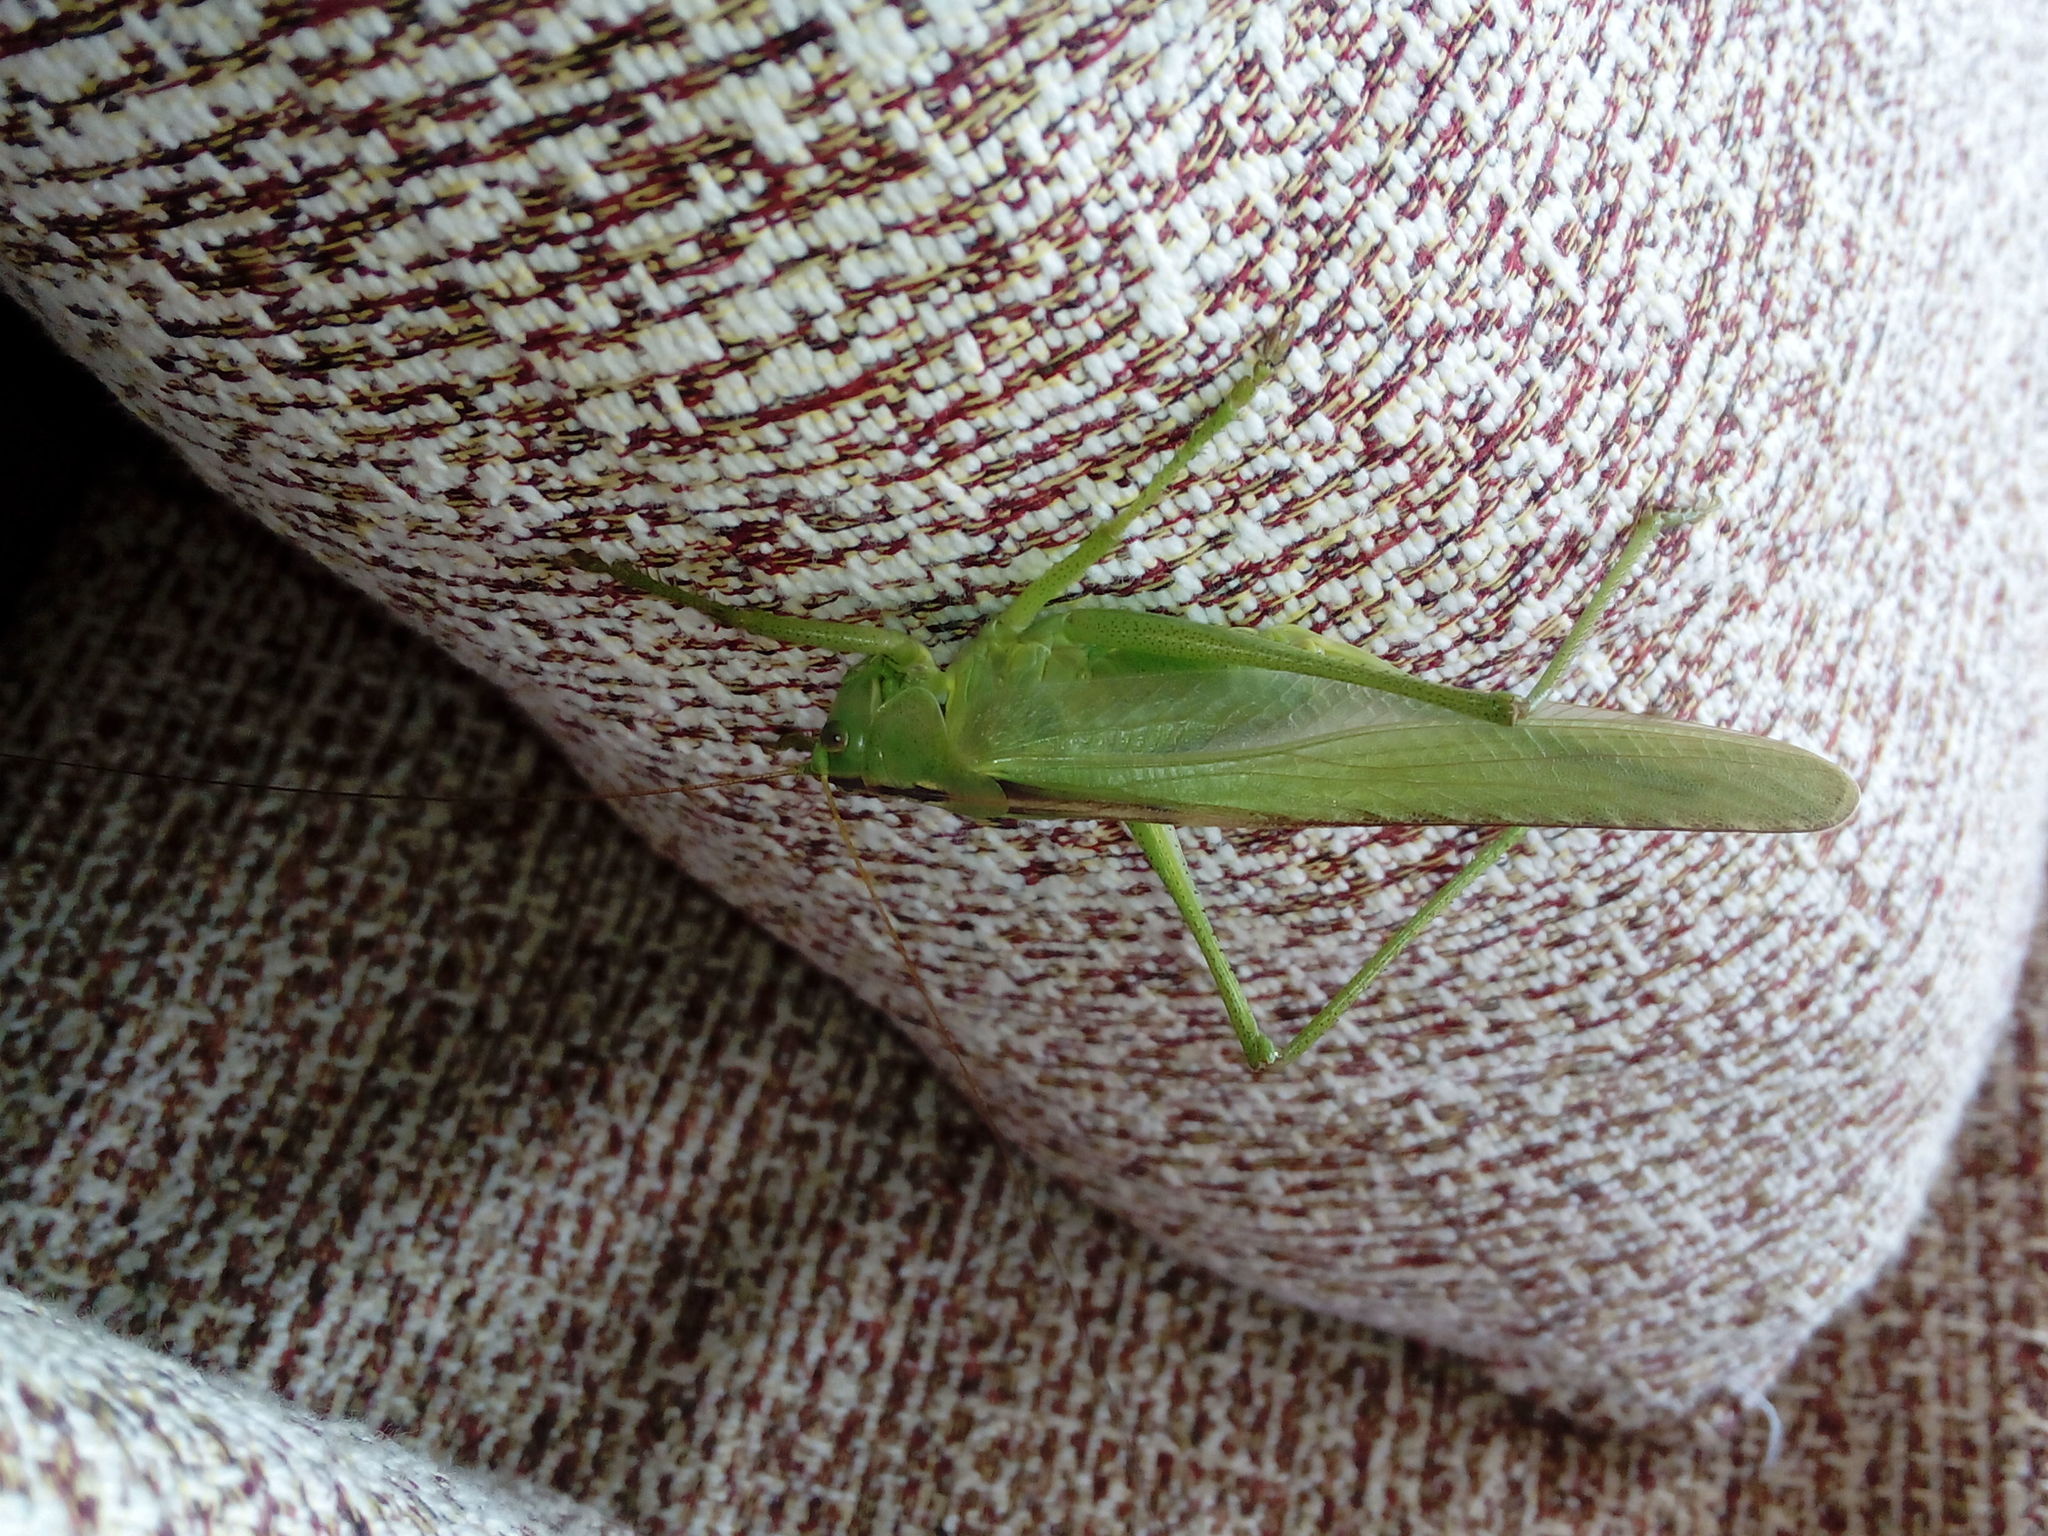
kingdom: Animalia
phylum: Arthropoda
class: Insecta
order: Orthoptera
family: Tettigoniidae
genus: Tettigonia
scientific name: Tettigonia viridissima
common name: Great green bush-cricket
